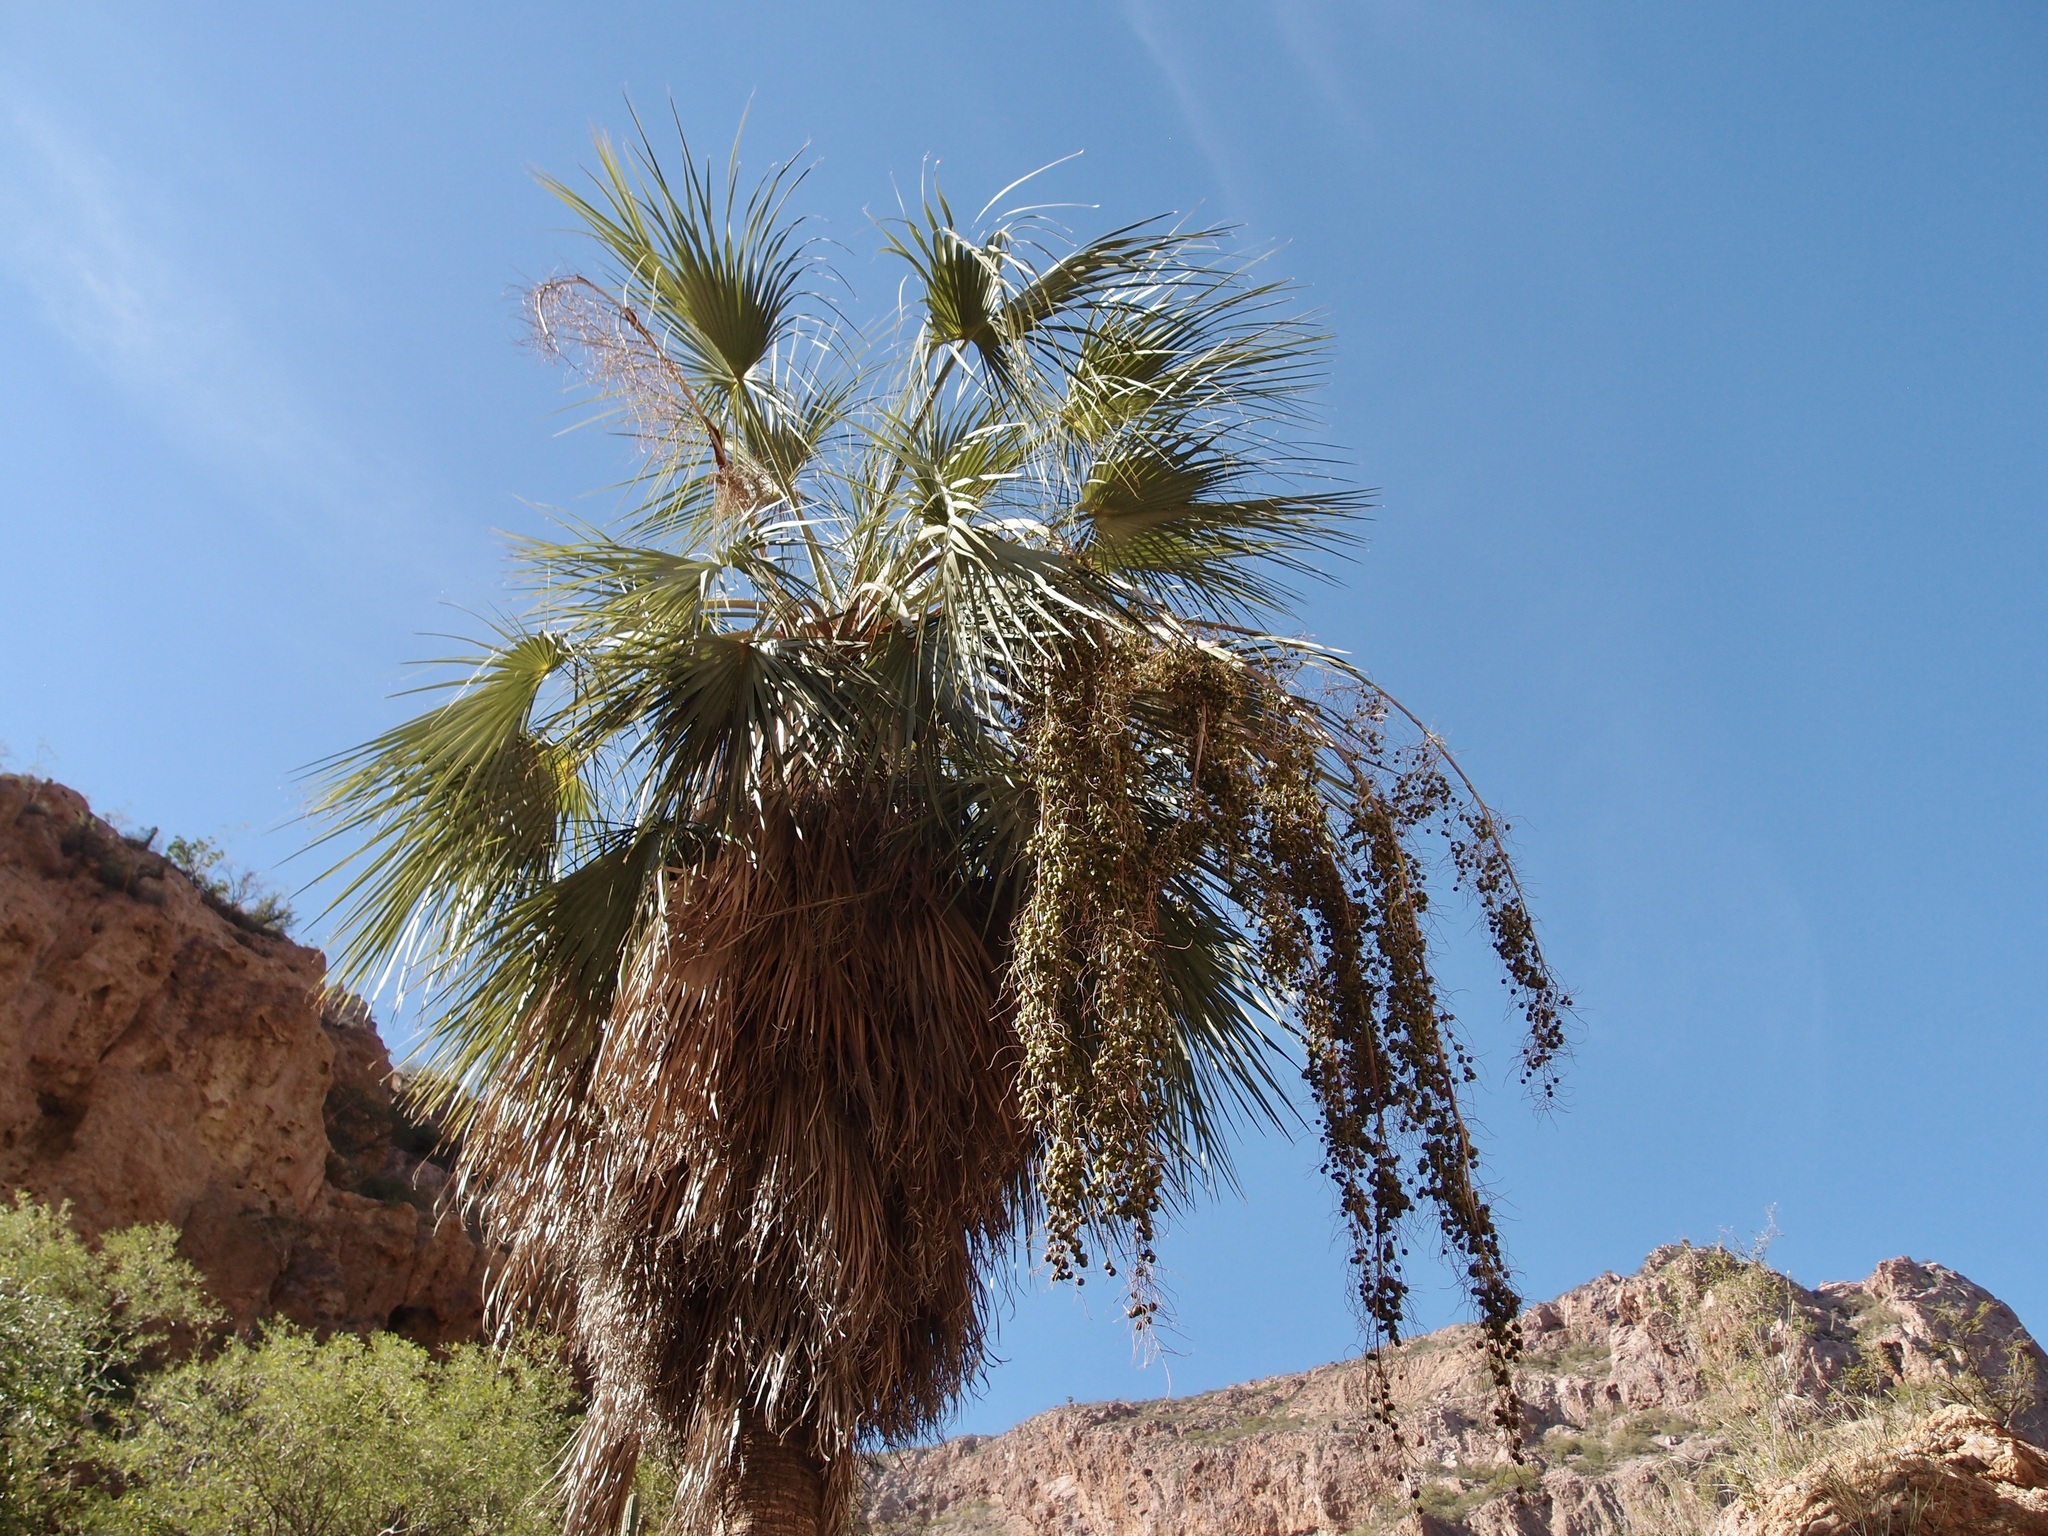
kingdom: Plantae
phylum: Tracheophyta
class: Liliopsida
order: Arecales
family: Arecaceae
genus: Brahea
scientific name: Brahea brandegeei
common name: San jose hesper palm
